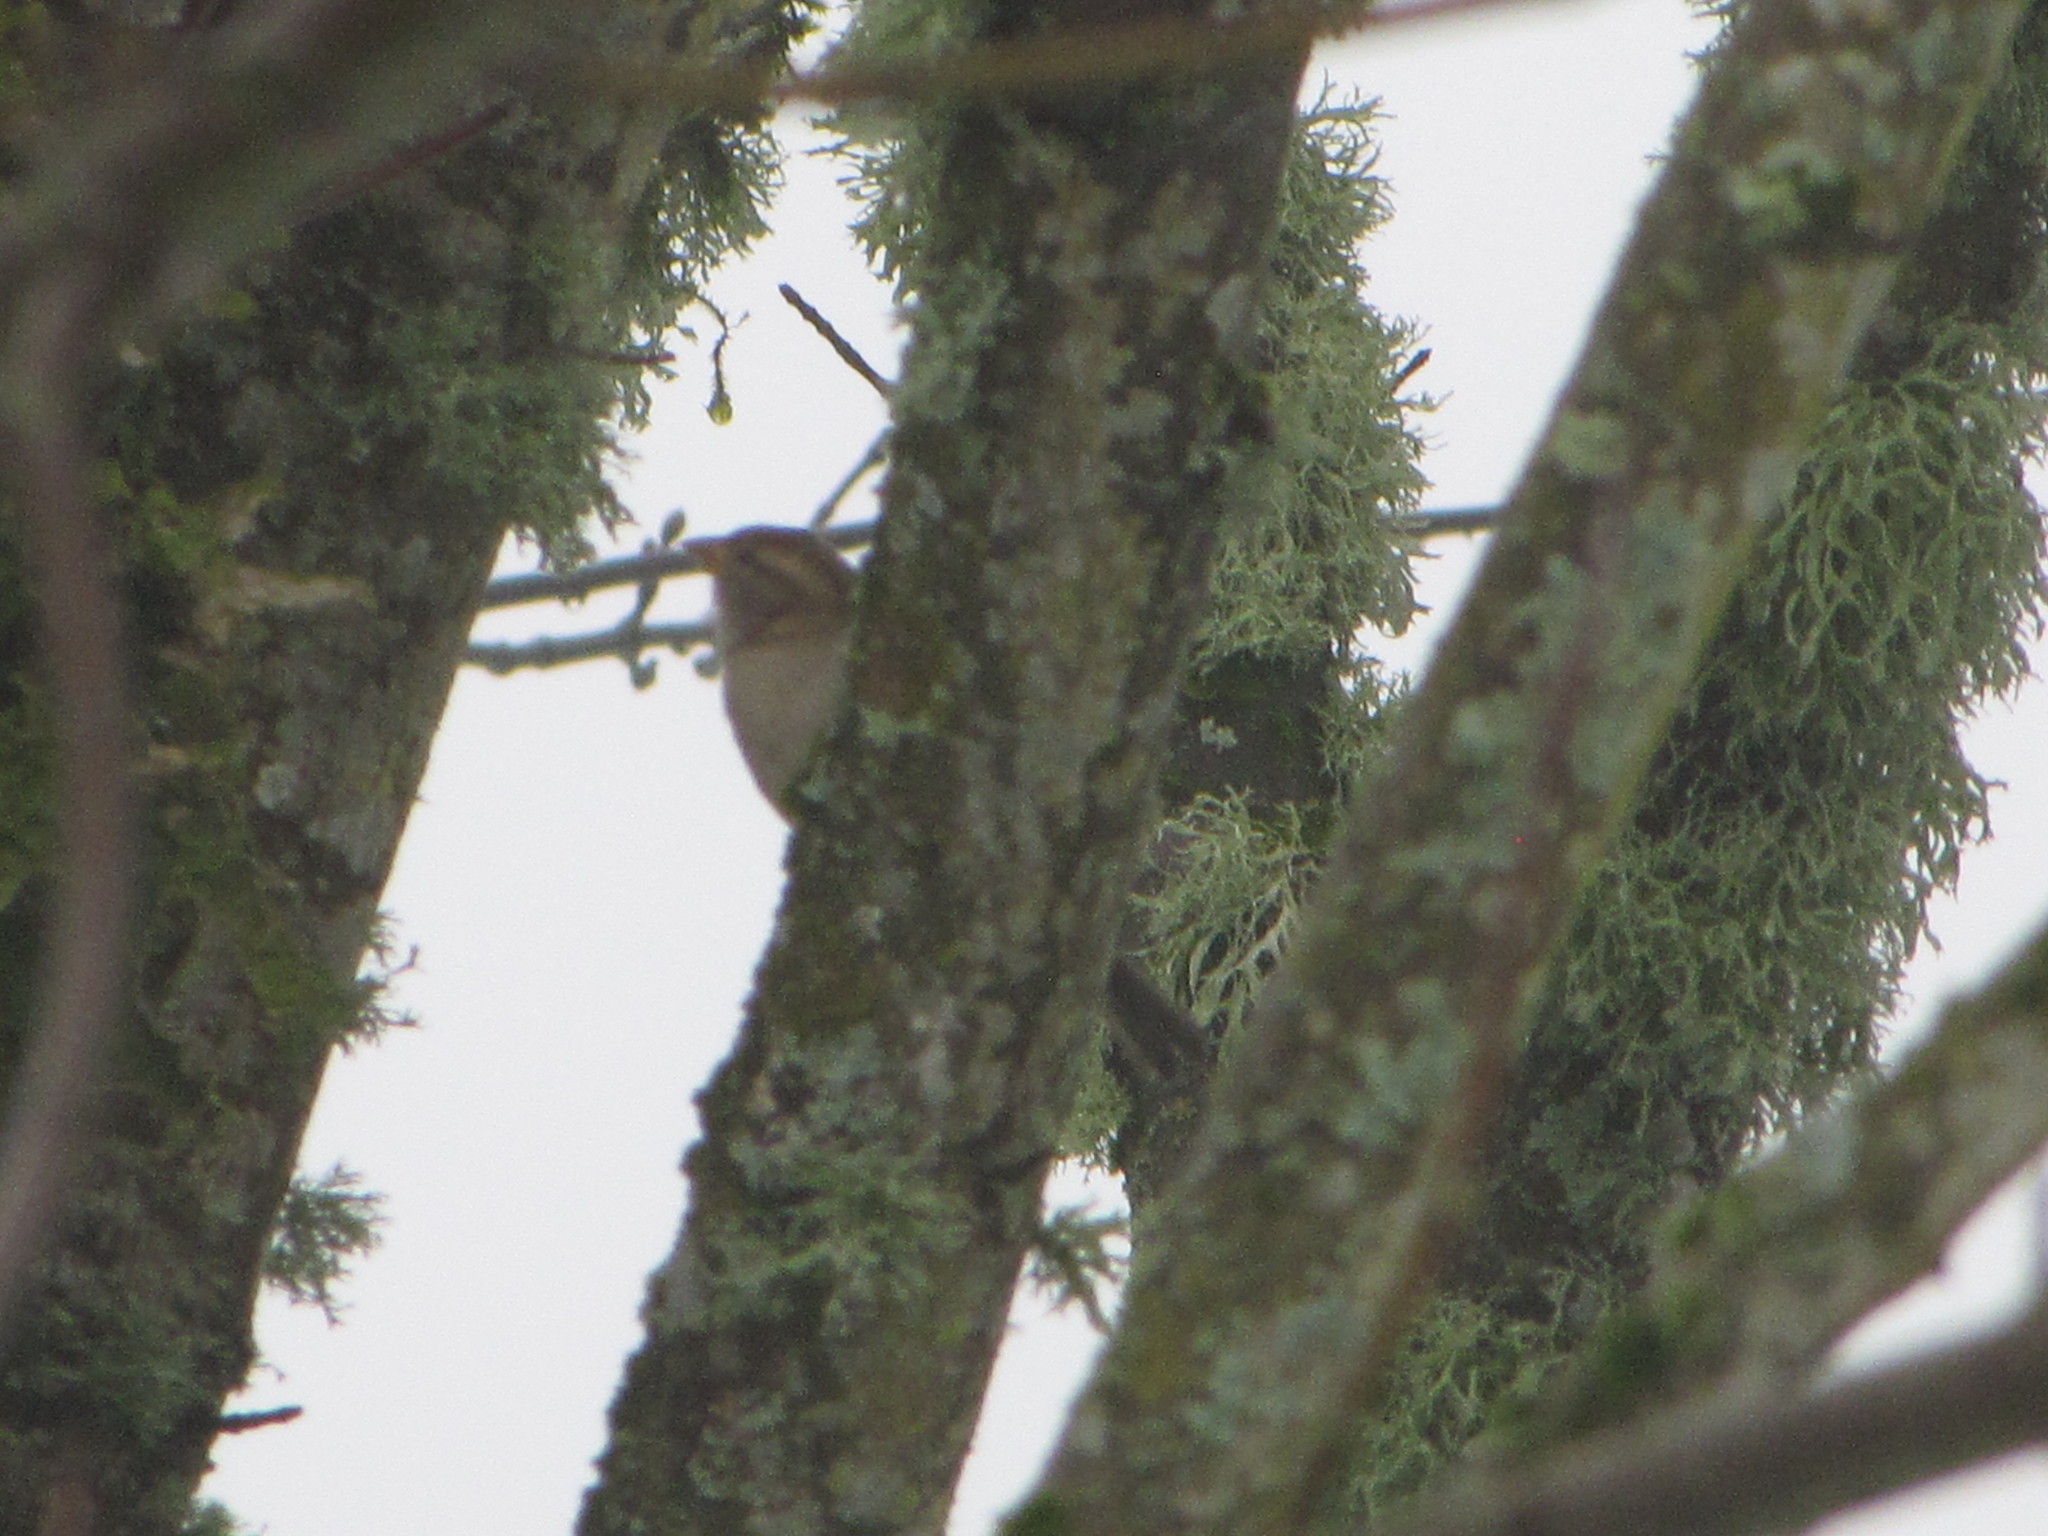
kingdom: Animalia
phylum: Chordata
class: Aves
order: Passeriformes
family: Passeridae
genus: Passer
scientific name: Passer domesticus
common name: House sparrow
